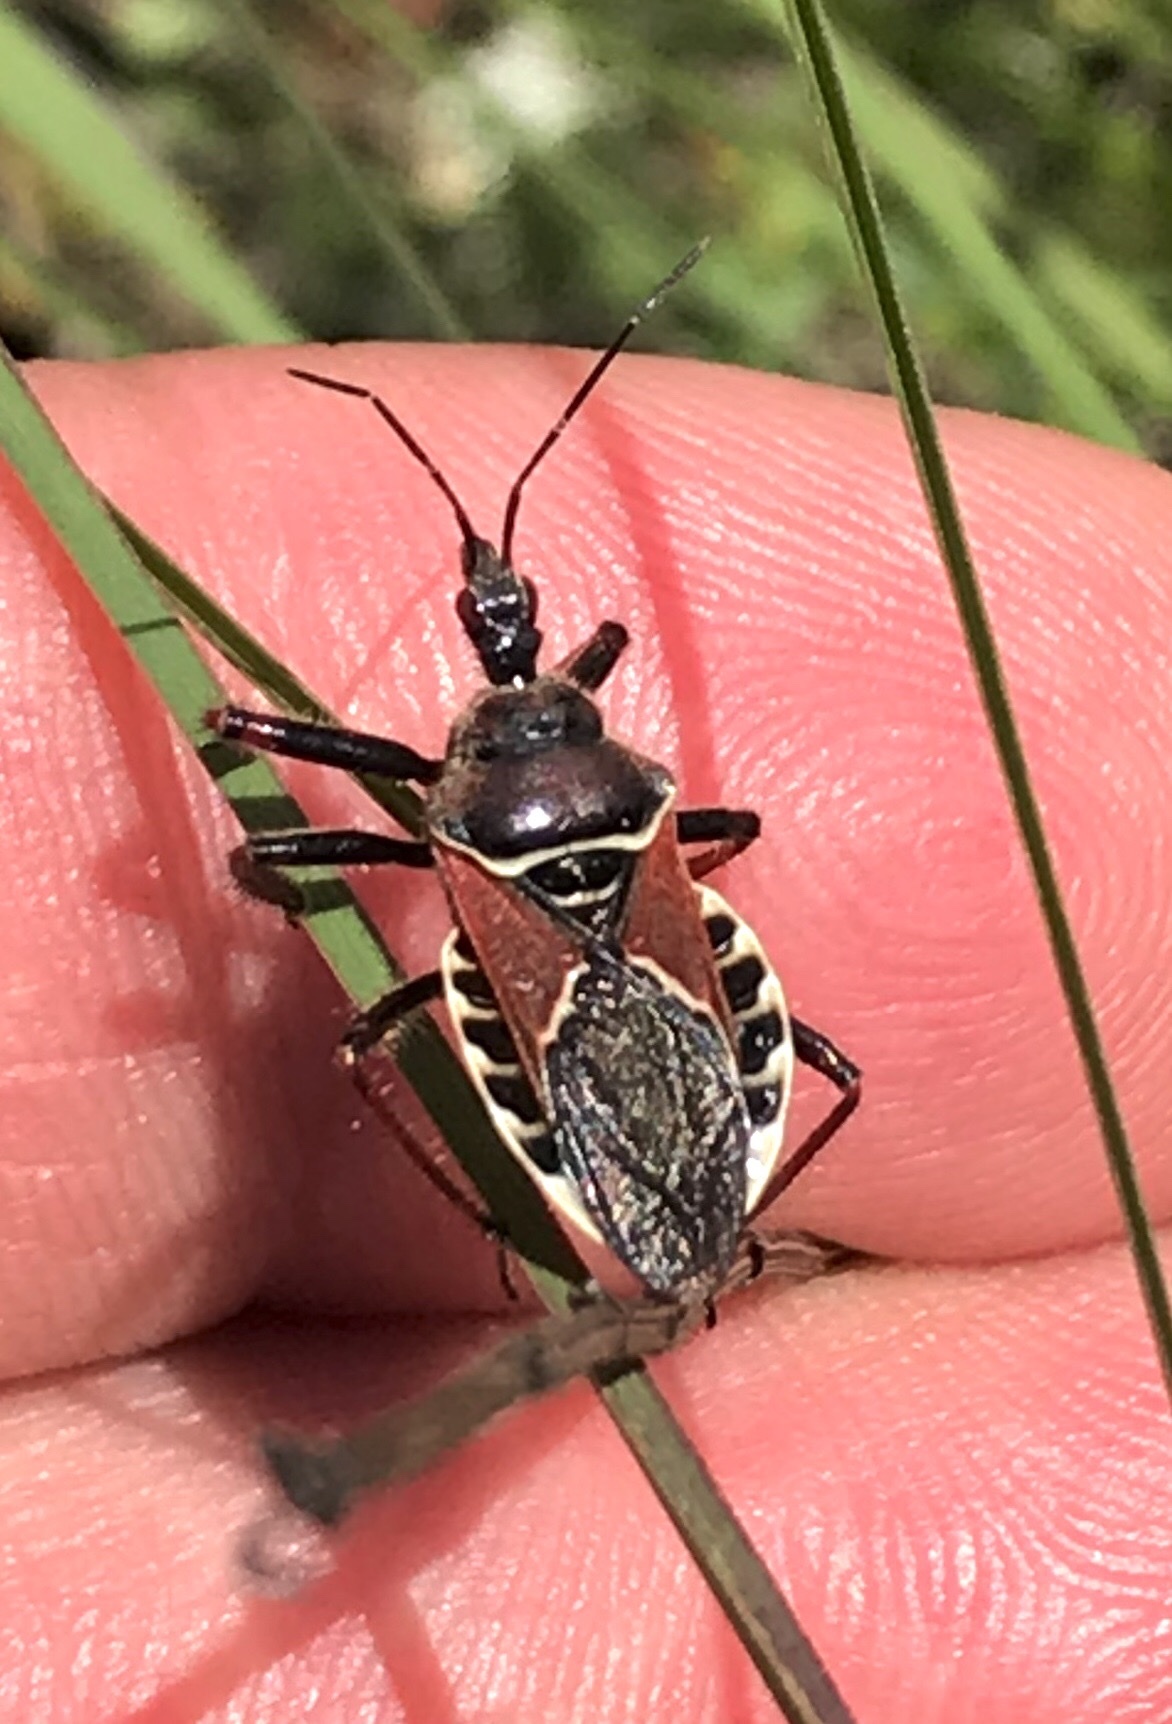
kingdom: Animalia
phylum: Arthropoda
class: Insecta
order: Hemiptera
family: Reduviidae
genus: Apiomerus
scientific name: Apiomerus spissipes
